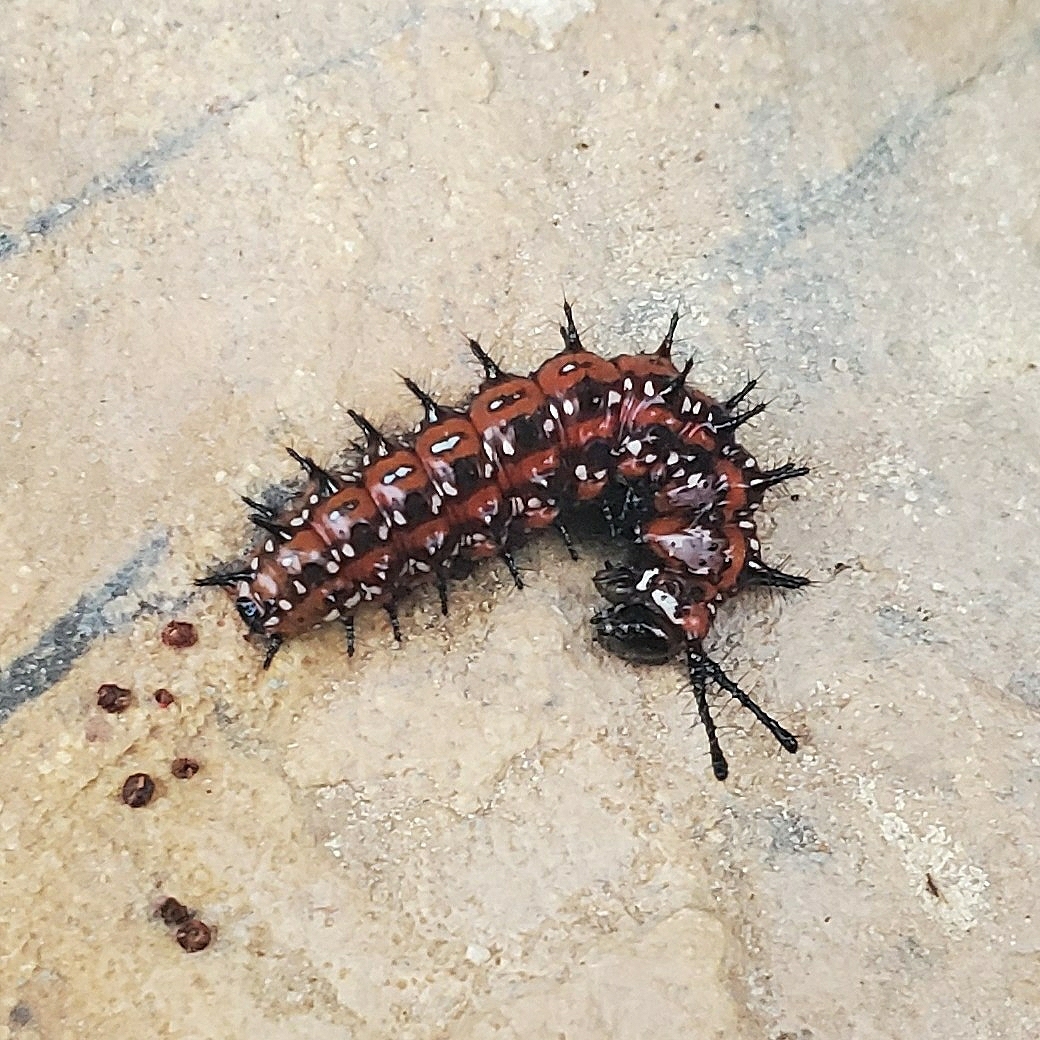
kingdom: Animalia
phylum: Arthropoda
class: Insecta
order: Lepidoptera
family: Nymphalidae
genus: Euptoieta
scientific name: Euptoieta claudia
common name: Variegated fritillary
